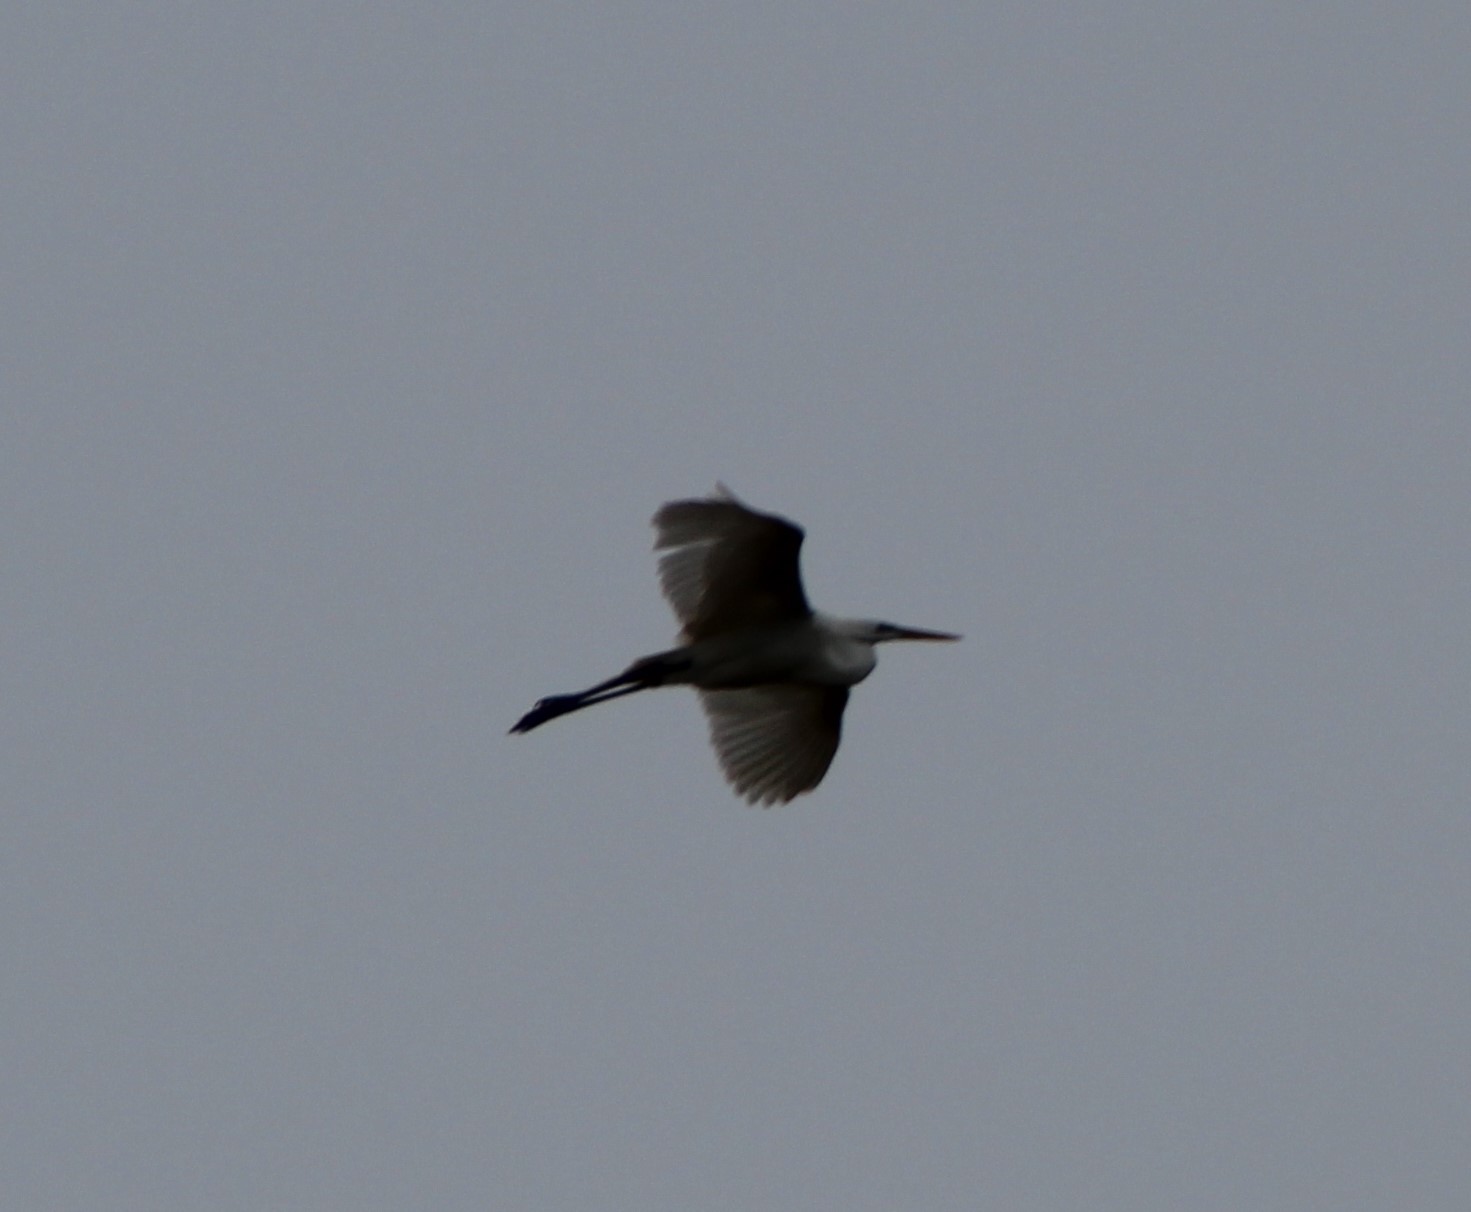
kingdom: Animalia
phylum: Chordata
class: Aves
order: Pelecaniformes
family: Ardeidae
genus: Ardea
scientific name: Ardea alba
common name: Great egret
